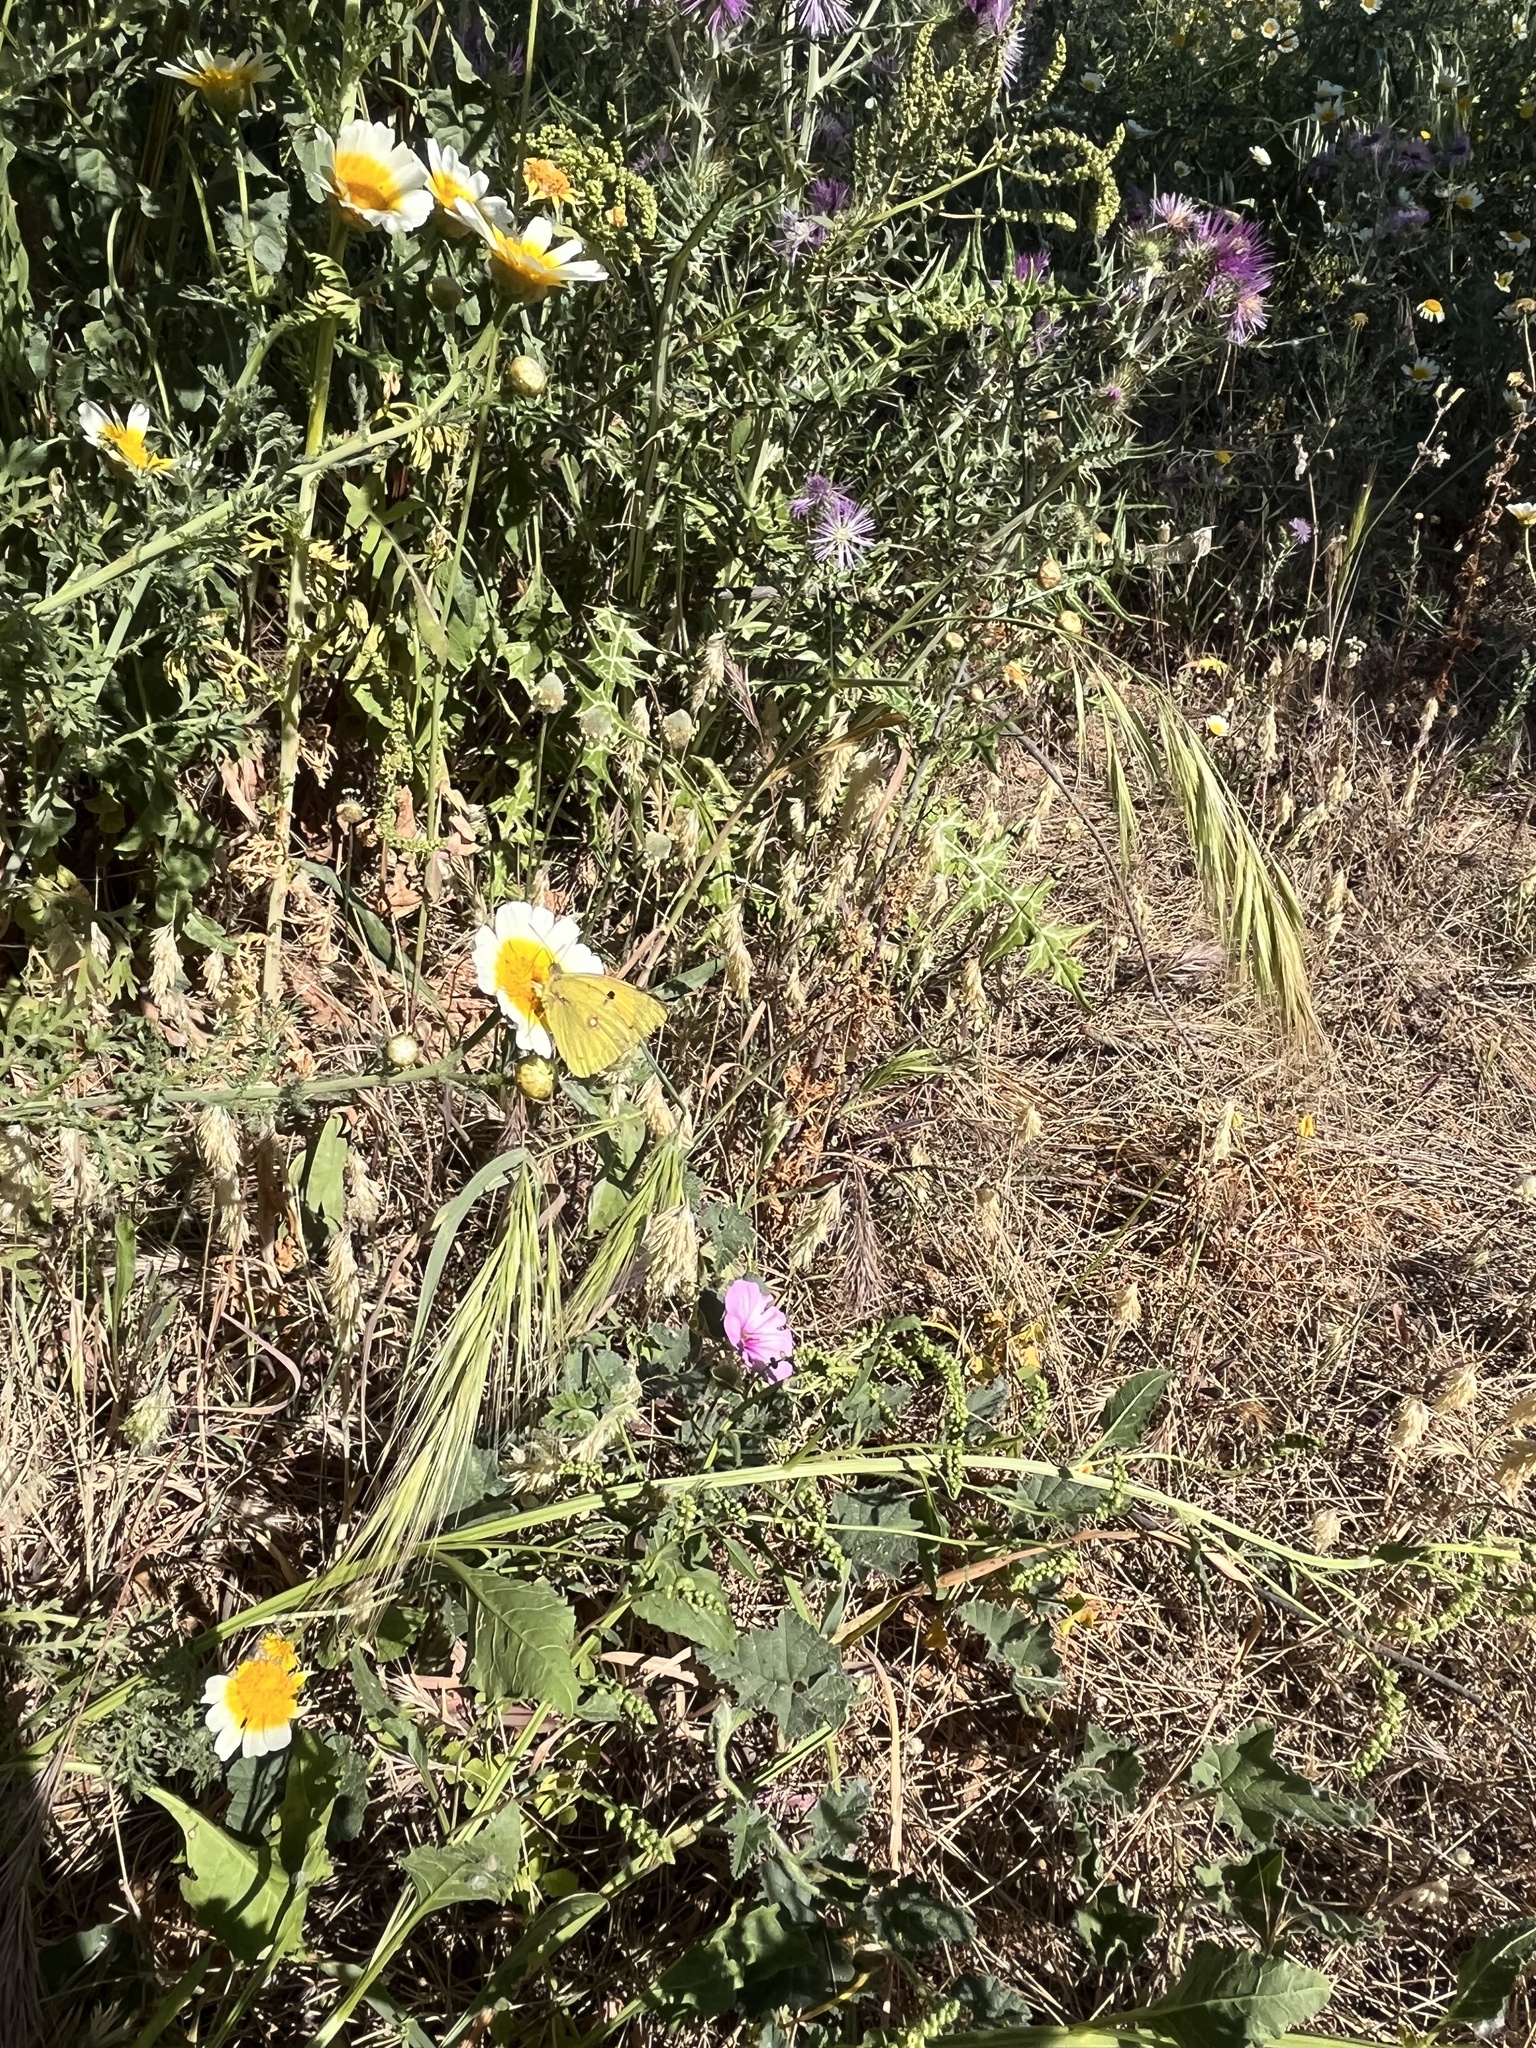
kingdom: Animalia
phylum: Arthropoda
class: Insecta
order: Lepidoptera
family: Pieridae
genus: Colias
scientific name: Colias croceus
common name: Clouded yellow
